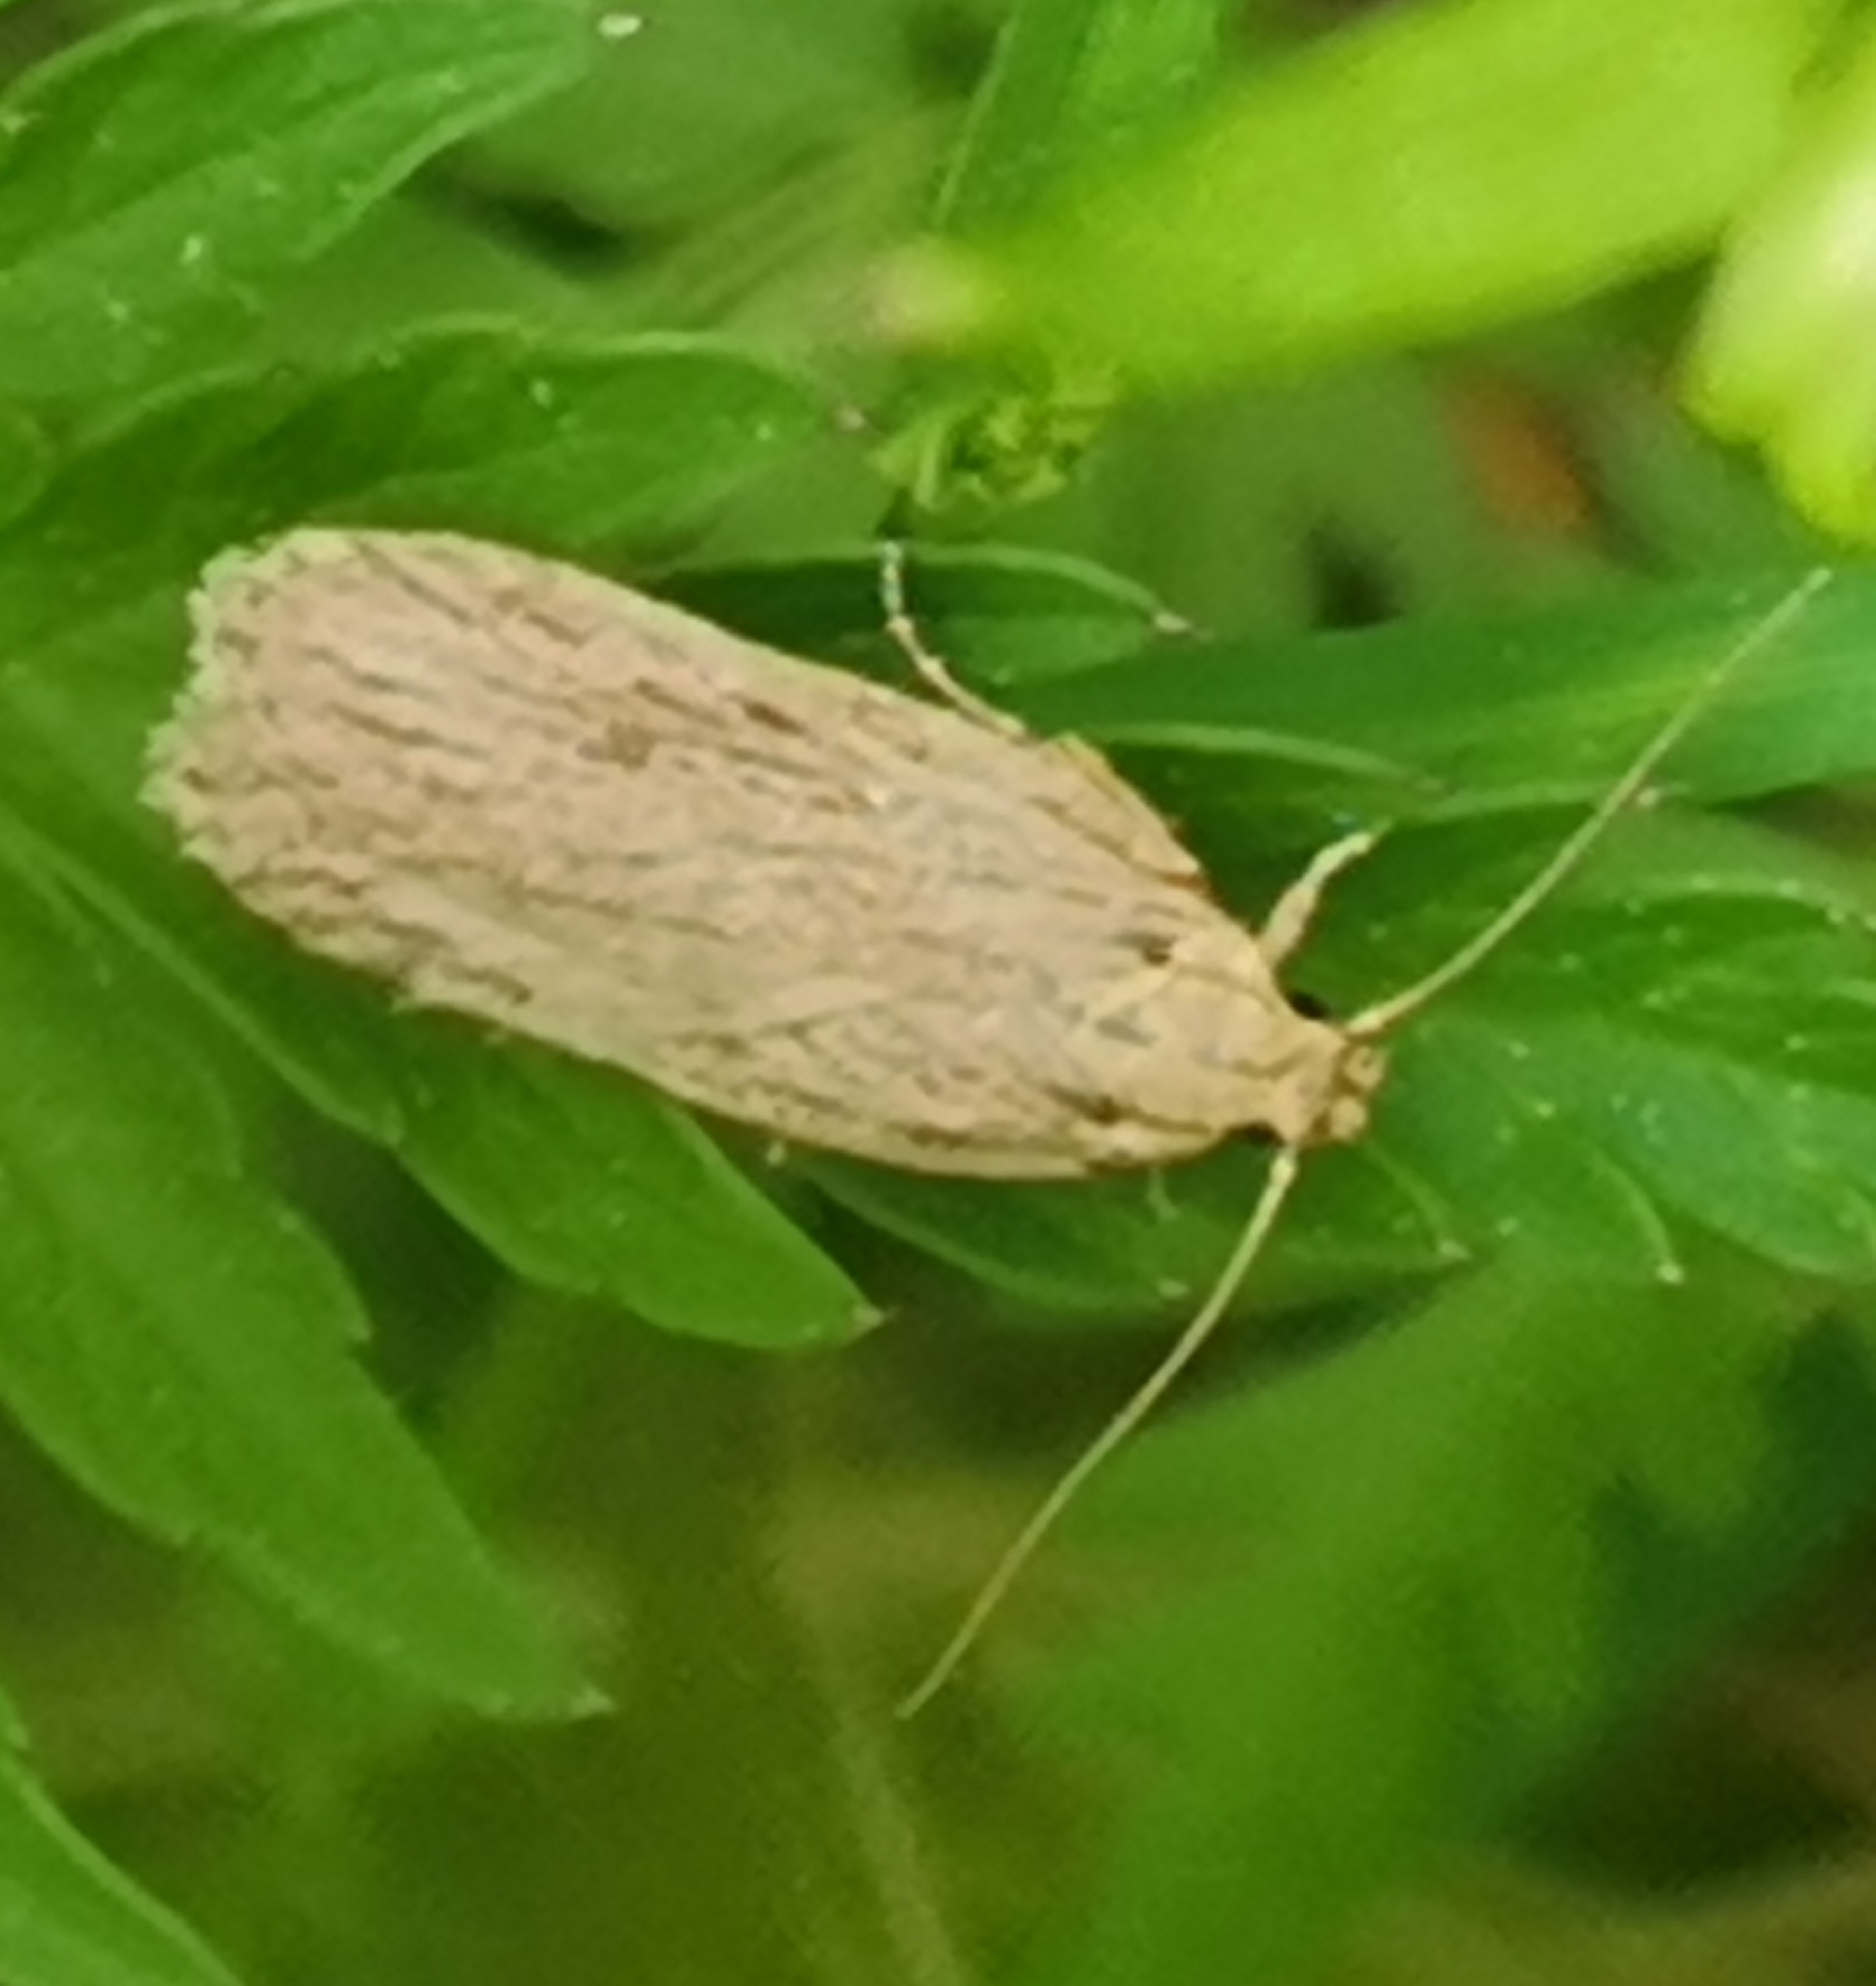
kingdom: Animalia
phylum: Arthropoda
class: Insecta
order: Lepidoptera
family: Depressariidae
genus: Depressaria
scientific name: Depressaria apiella
